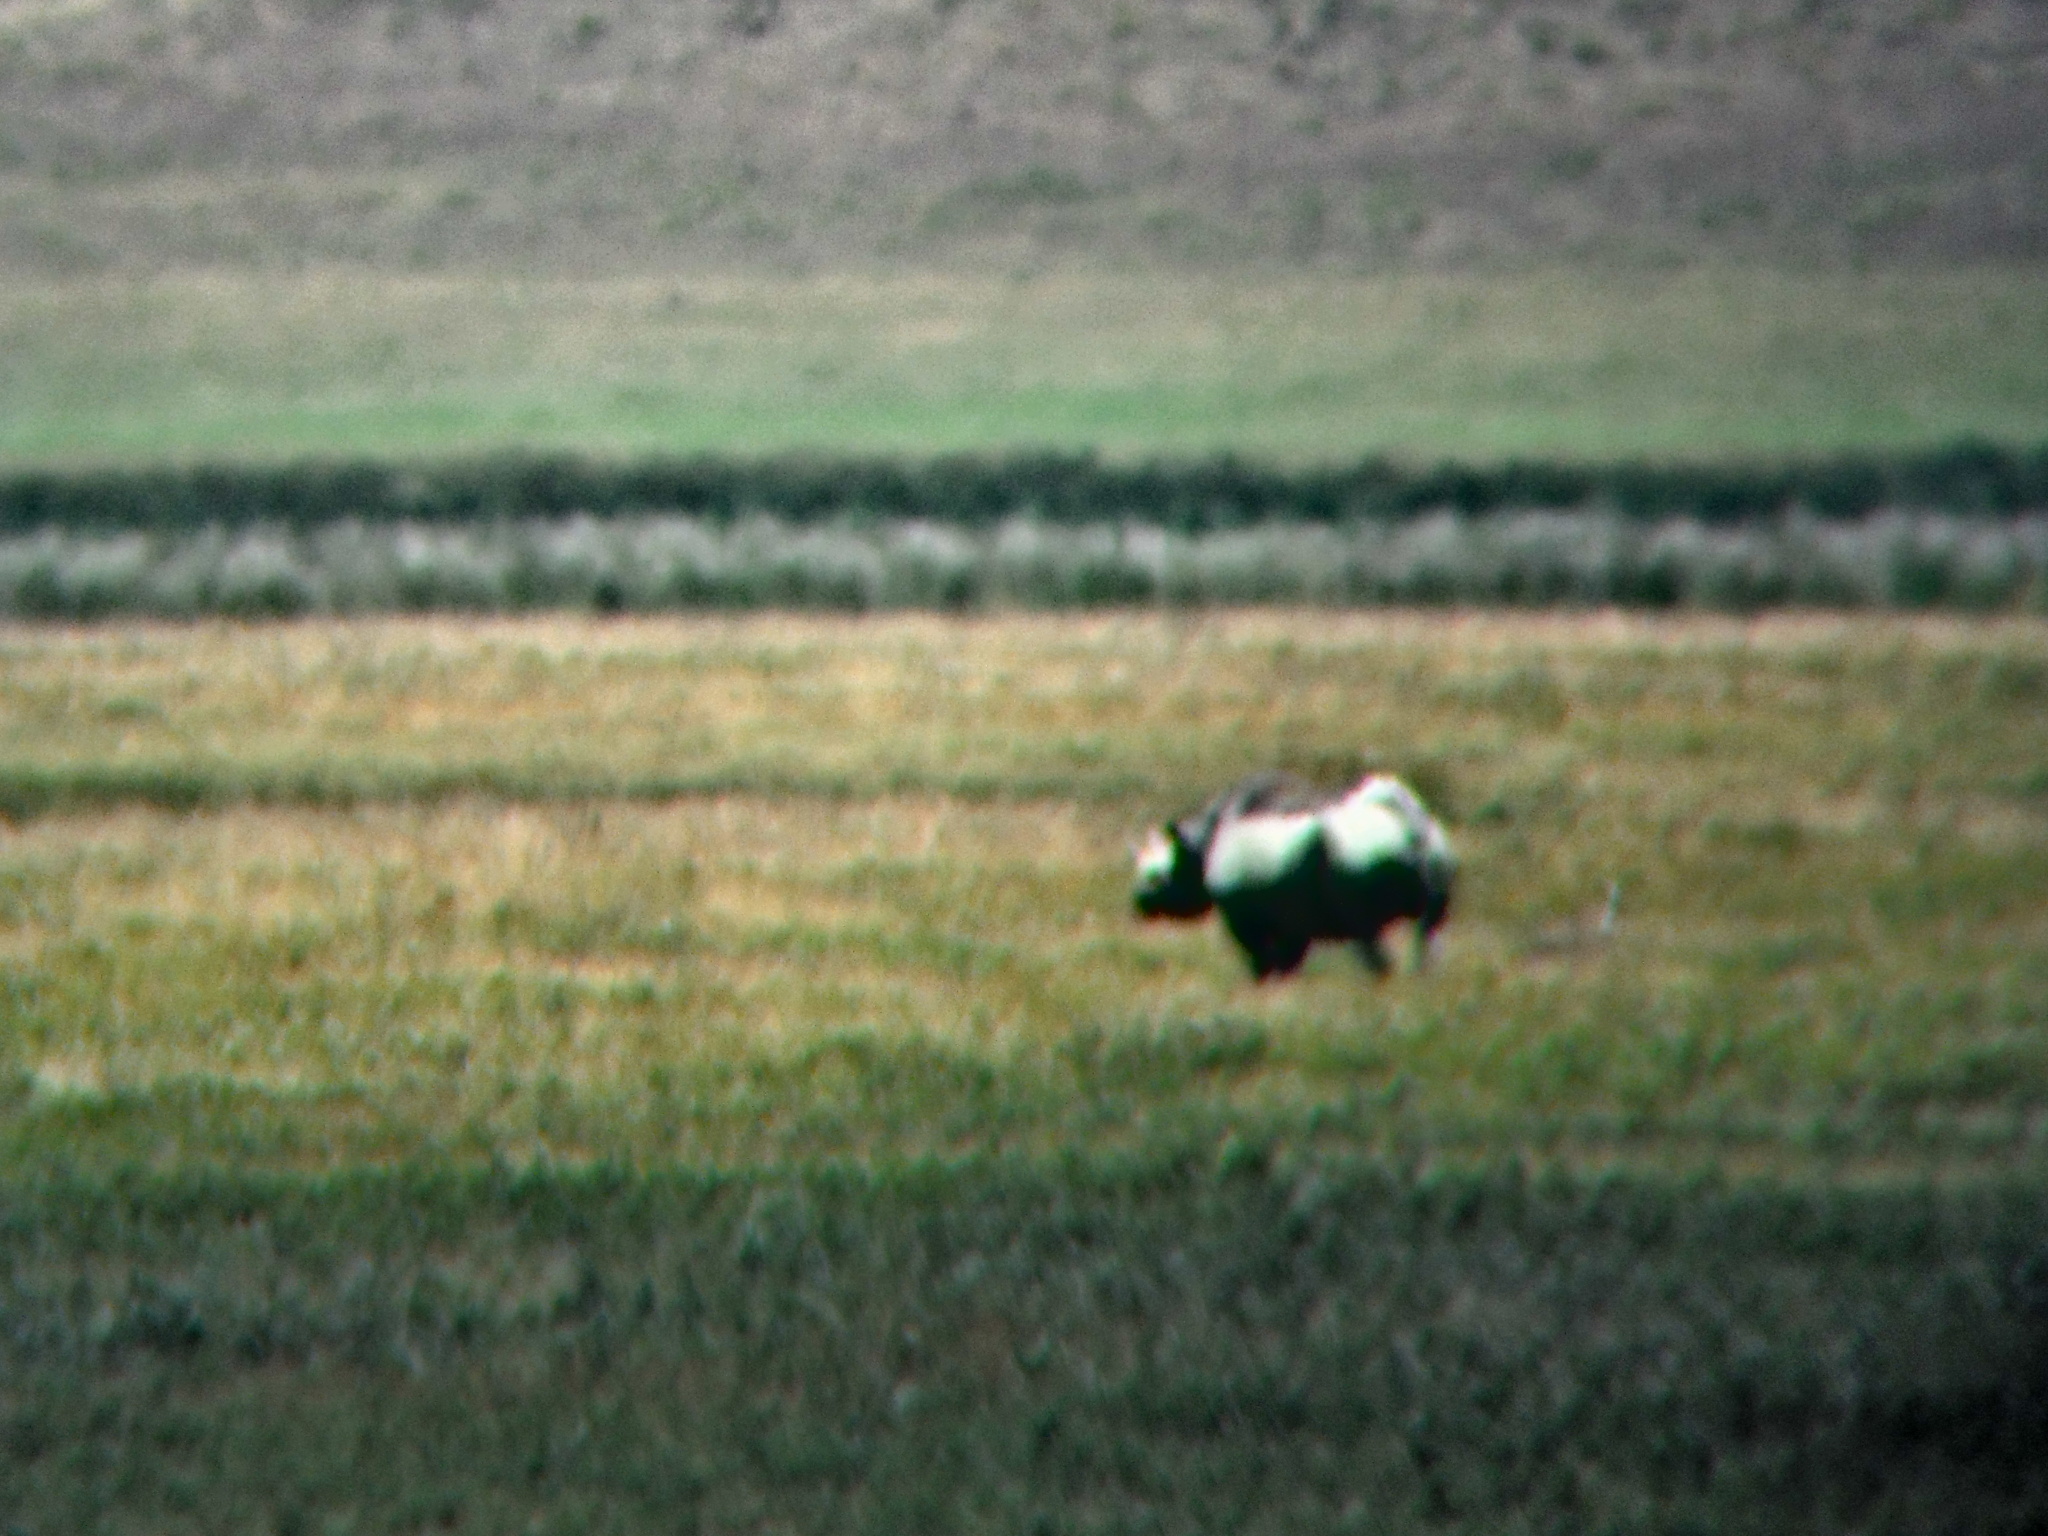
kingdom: Animalia
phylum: Chordata
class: Mammalia
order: Perissodactyla
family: Rhinocerotidae
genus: Diceros
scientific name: Diceros bicornis
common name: Black rhinoceros
